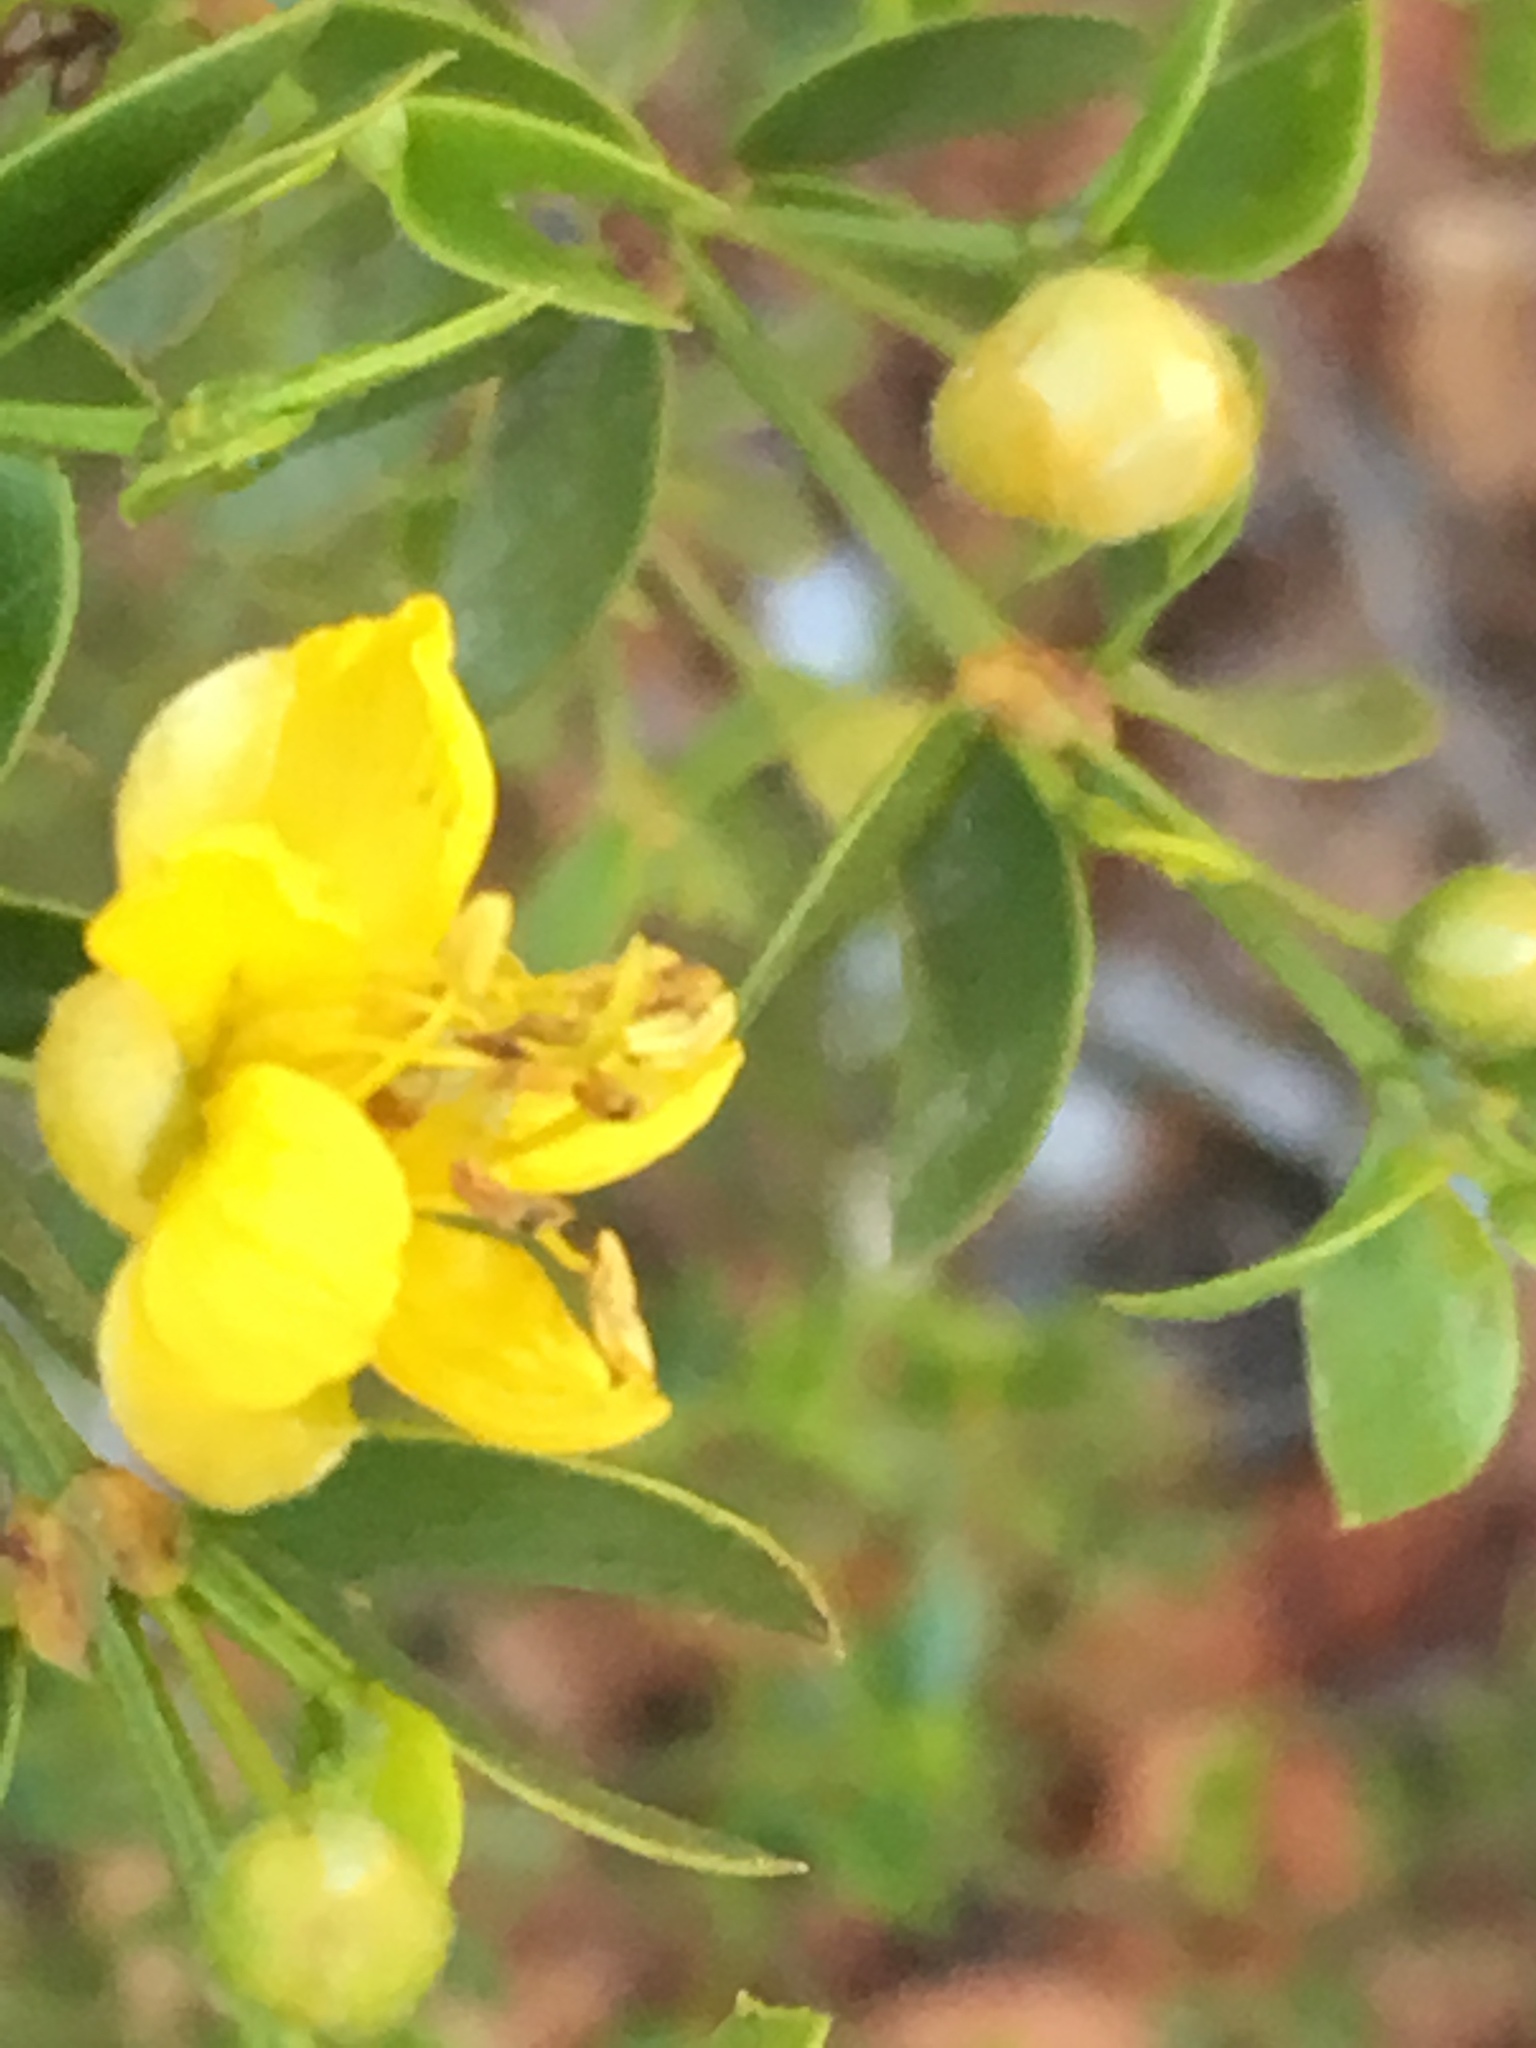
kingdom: Plantae
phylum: Tracheophyta
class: Magnoliopsida
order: Zygophyllales
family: Zygophyllaceae
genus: Larrea
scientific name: Larrea tridentata
